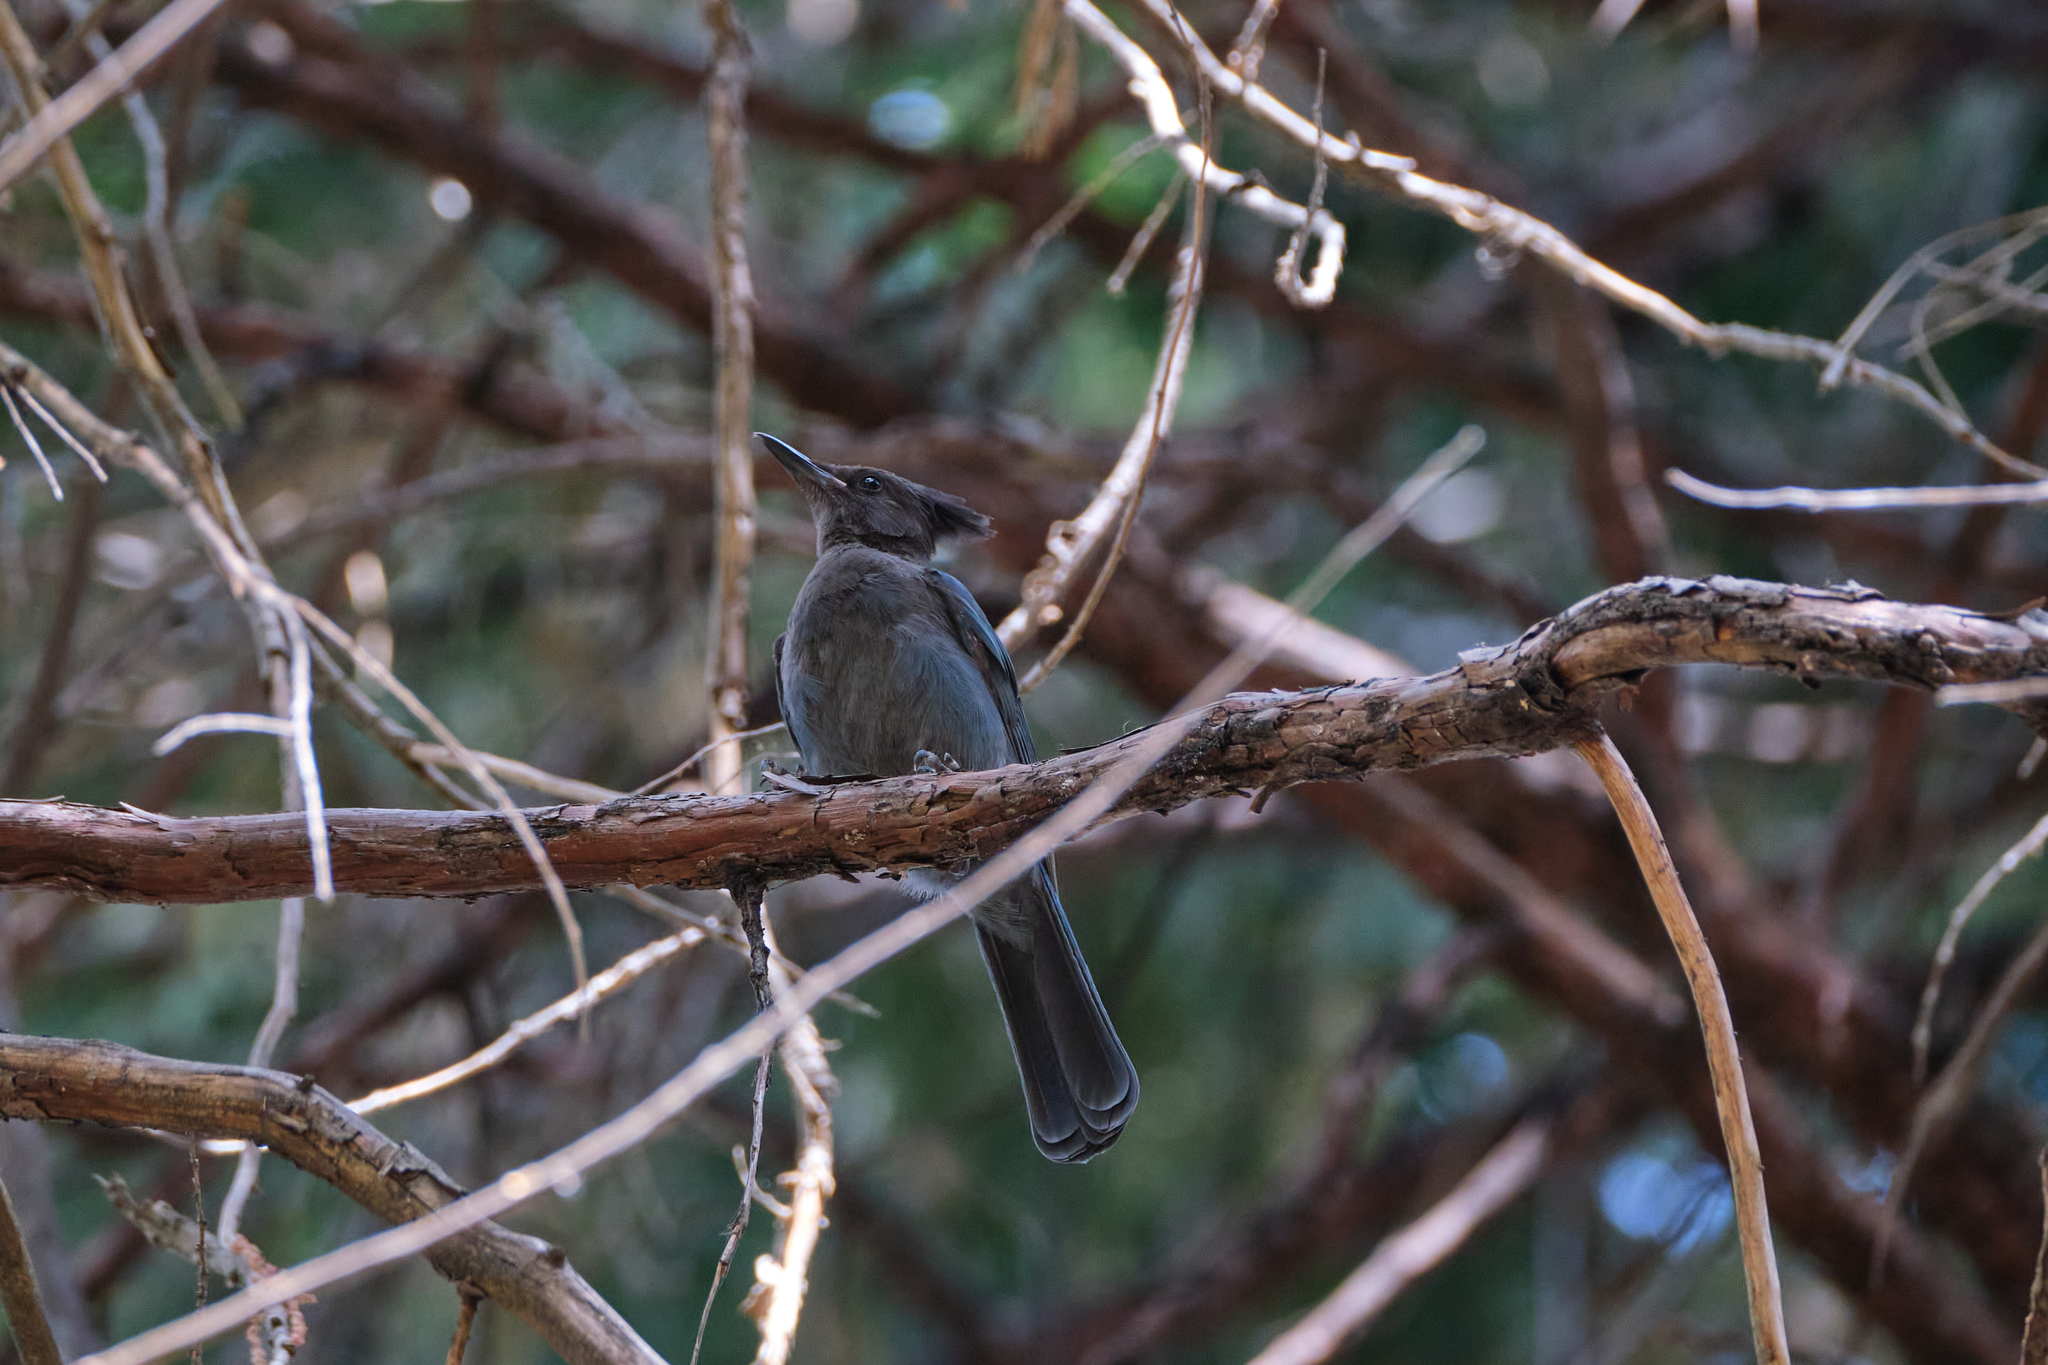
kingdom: Animalia
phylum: Chordata
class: Aves
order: Passeriformes
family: Corvidae
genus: Cyanocitta
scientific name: Cyanocitta stelleri
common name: Steller's jay
